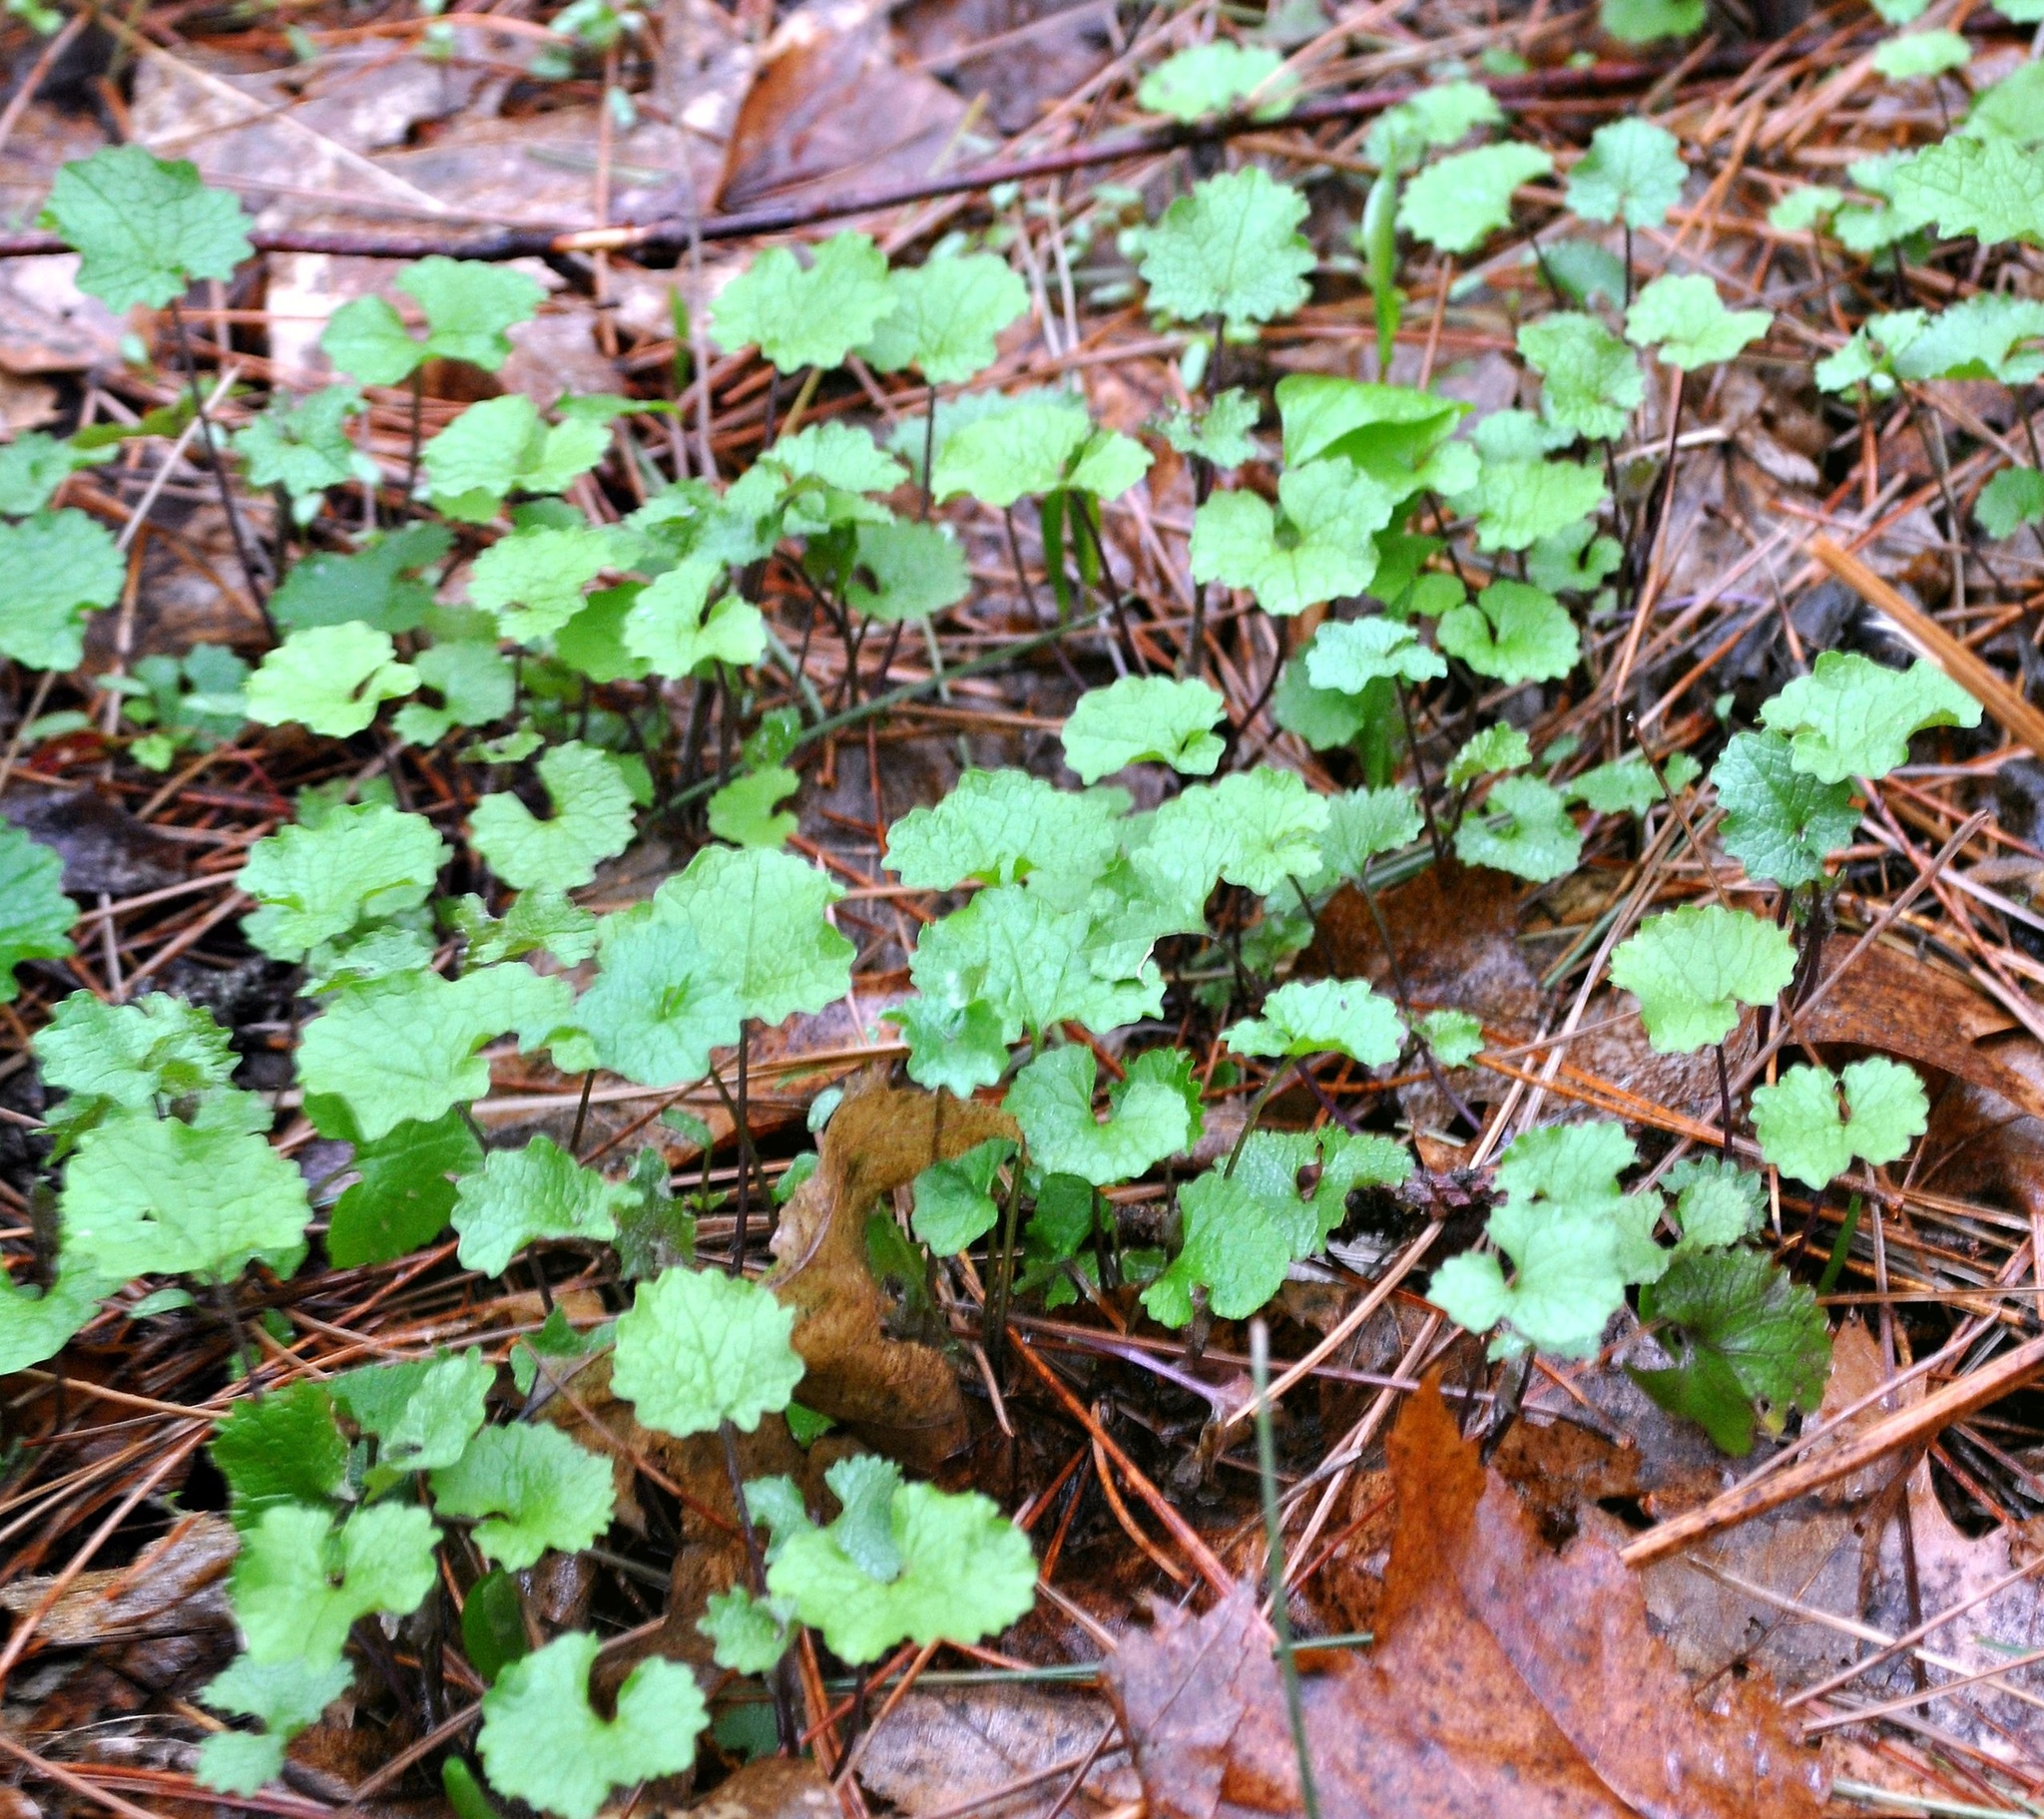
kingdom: Plantae
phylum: Tracheophyta
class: Magnoliopsida
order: Brassicales
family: Brassicaceae
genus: Alliaria
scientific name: Alliaria petiolata
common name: Garlic mustard
